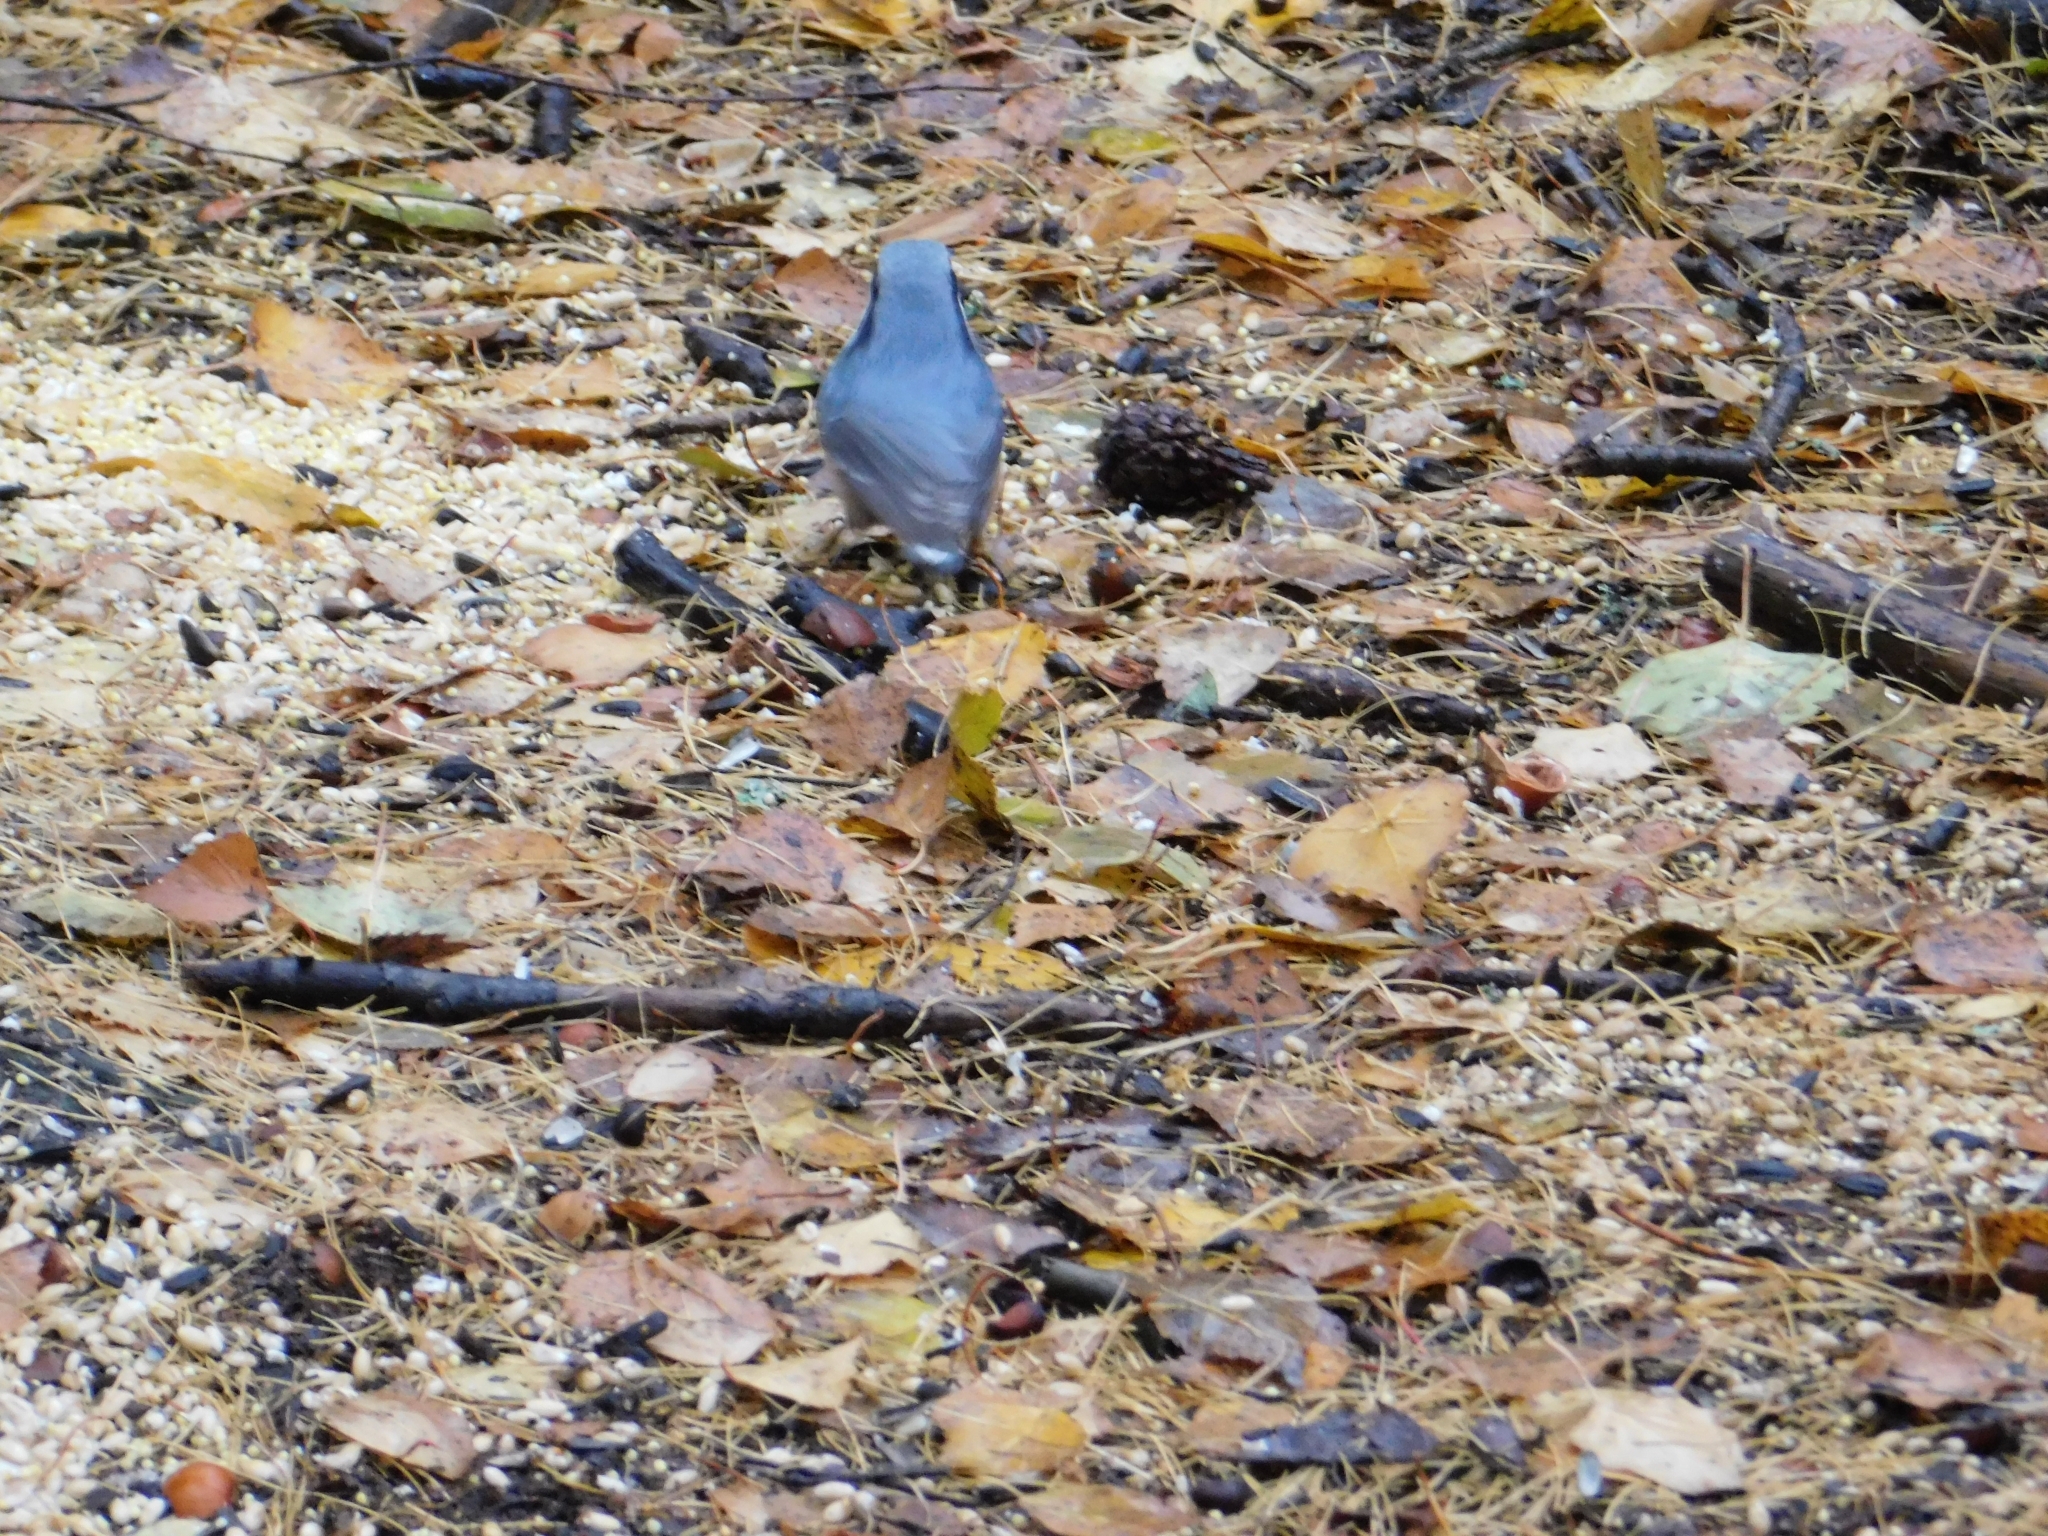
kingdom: Animalia
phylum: Chordata
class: Aves
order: Passeriformes
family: Sittidae
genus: Sitta
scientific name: Sitta europaea
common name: Eurasian nuthatch
